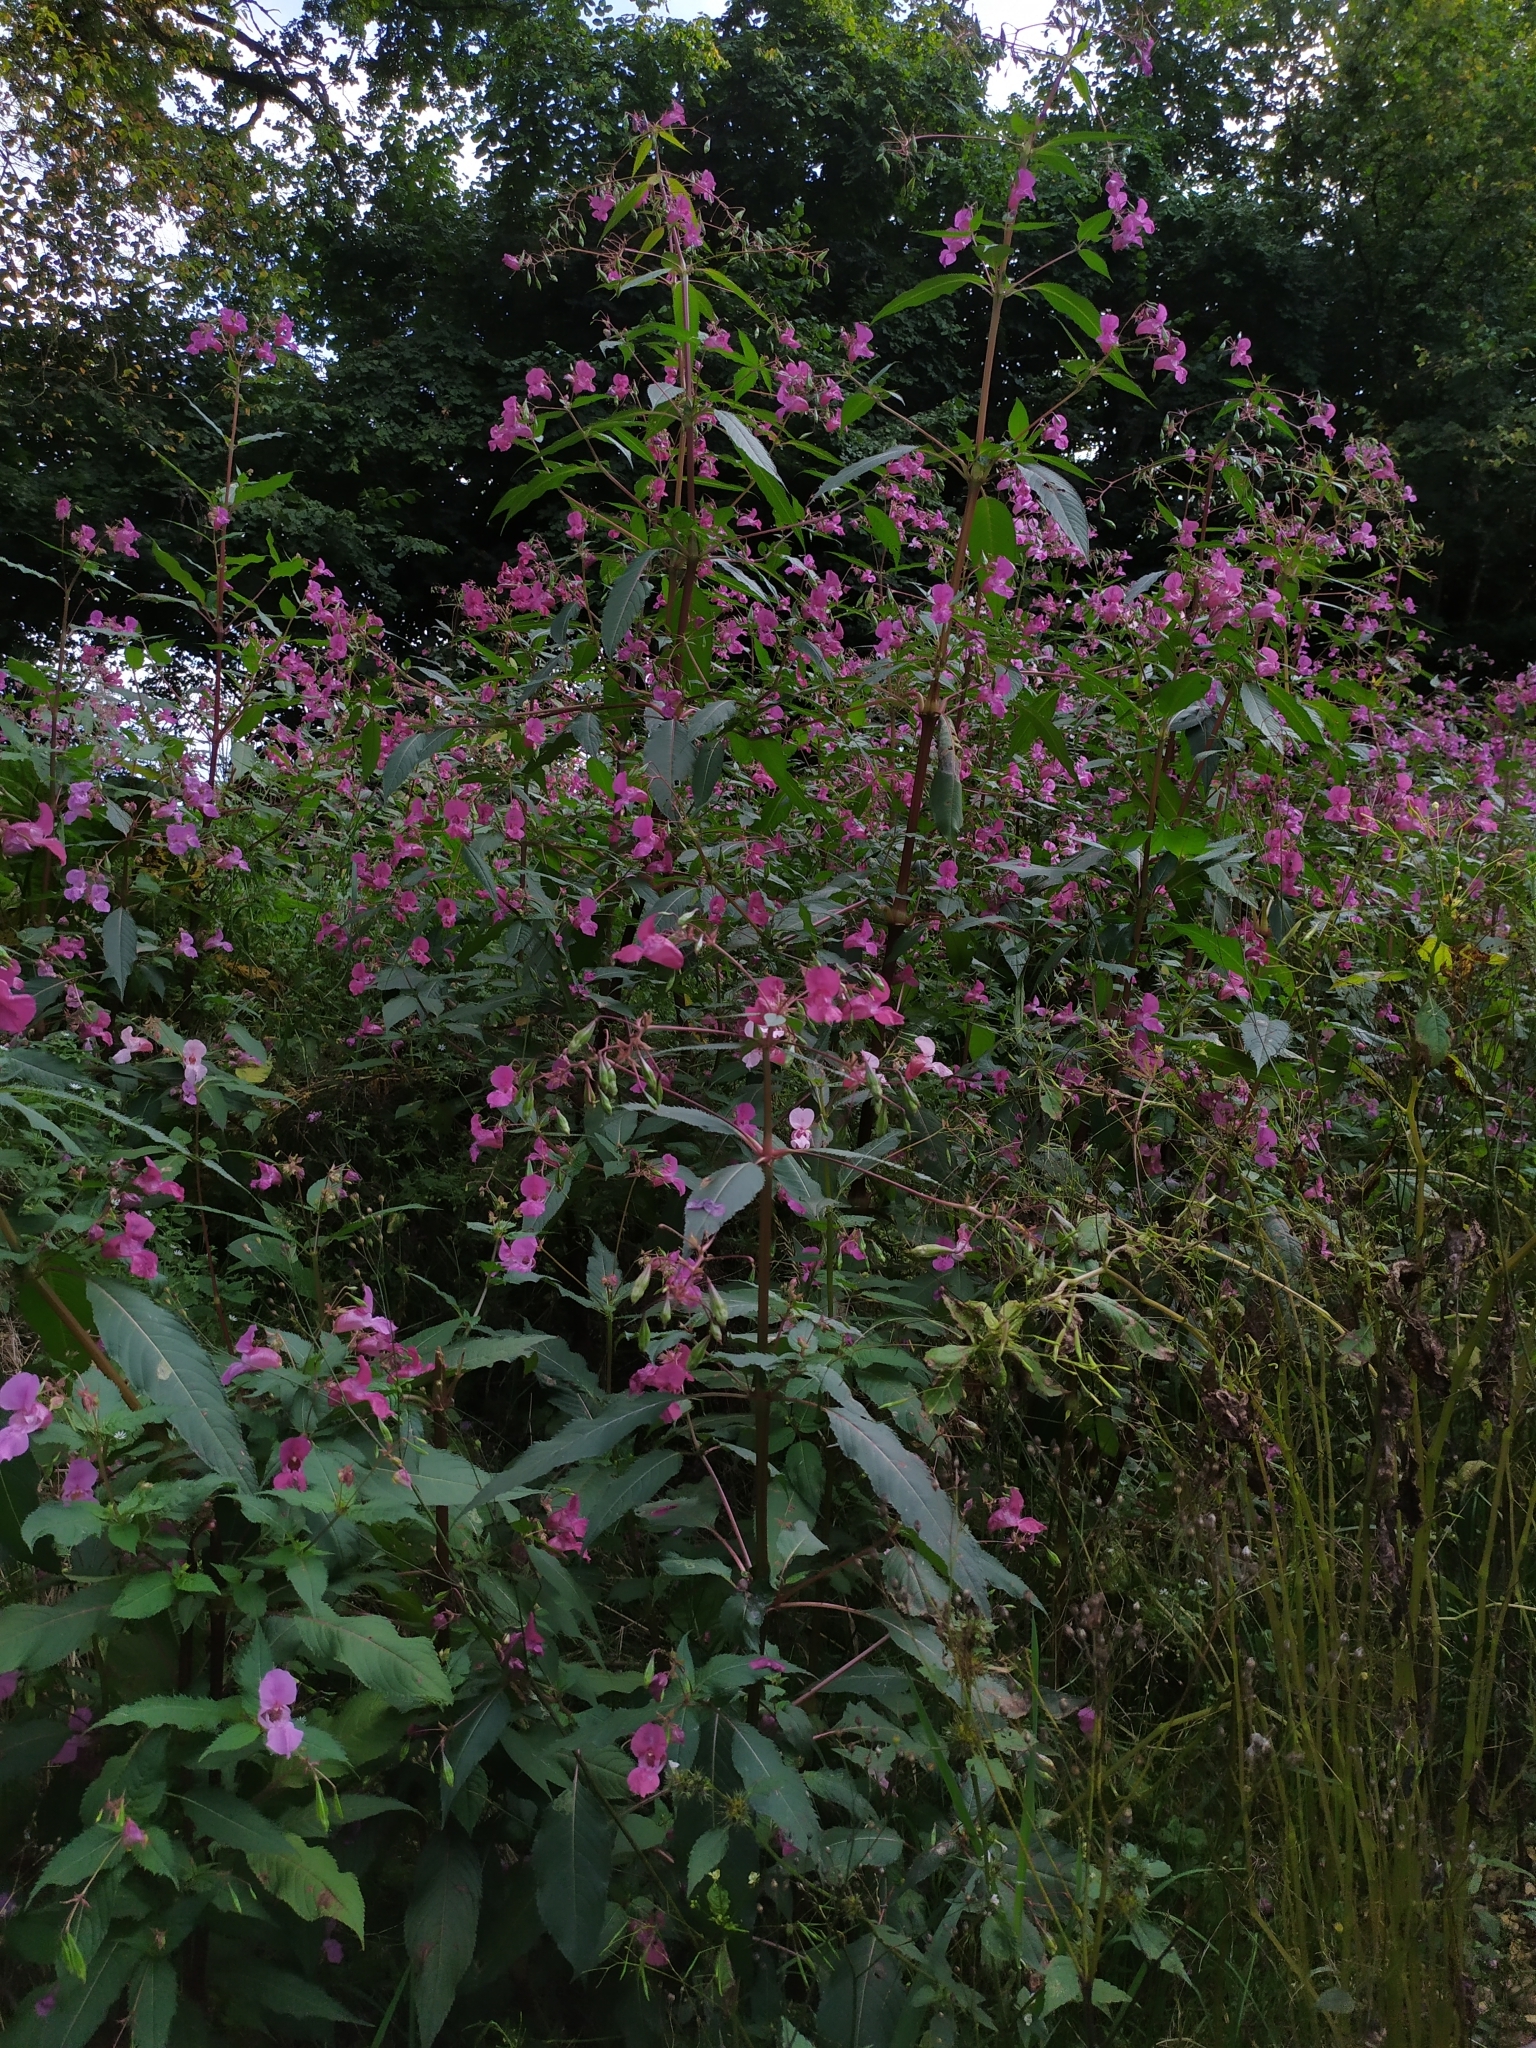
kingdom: Plantae
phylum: Tracheophyta
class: Magnoliopsida
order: Ericales
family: Balsaminaceae
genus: Impatiens
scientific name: Impatiens glandulifera
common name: Himalayan balsam
